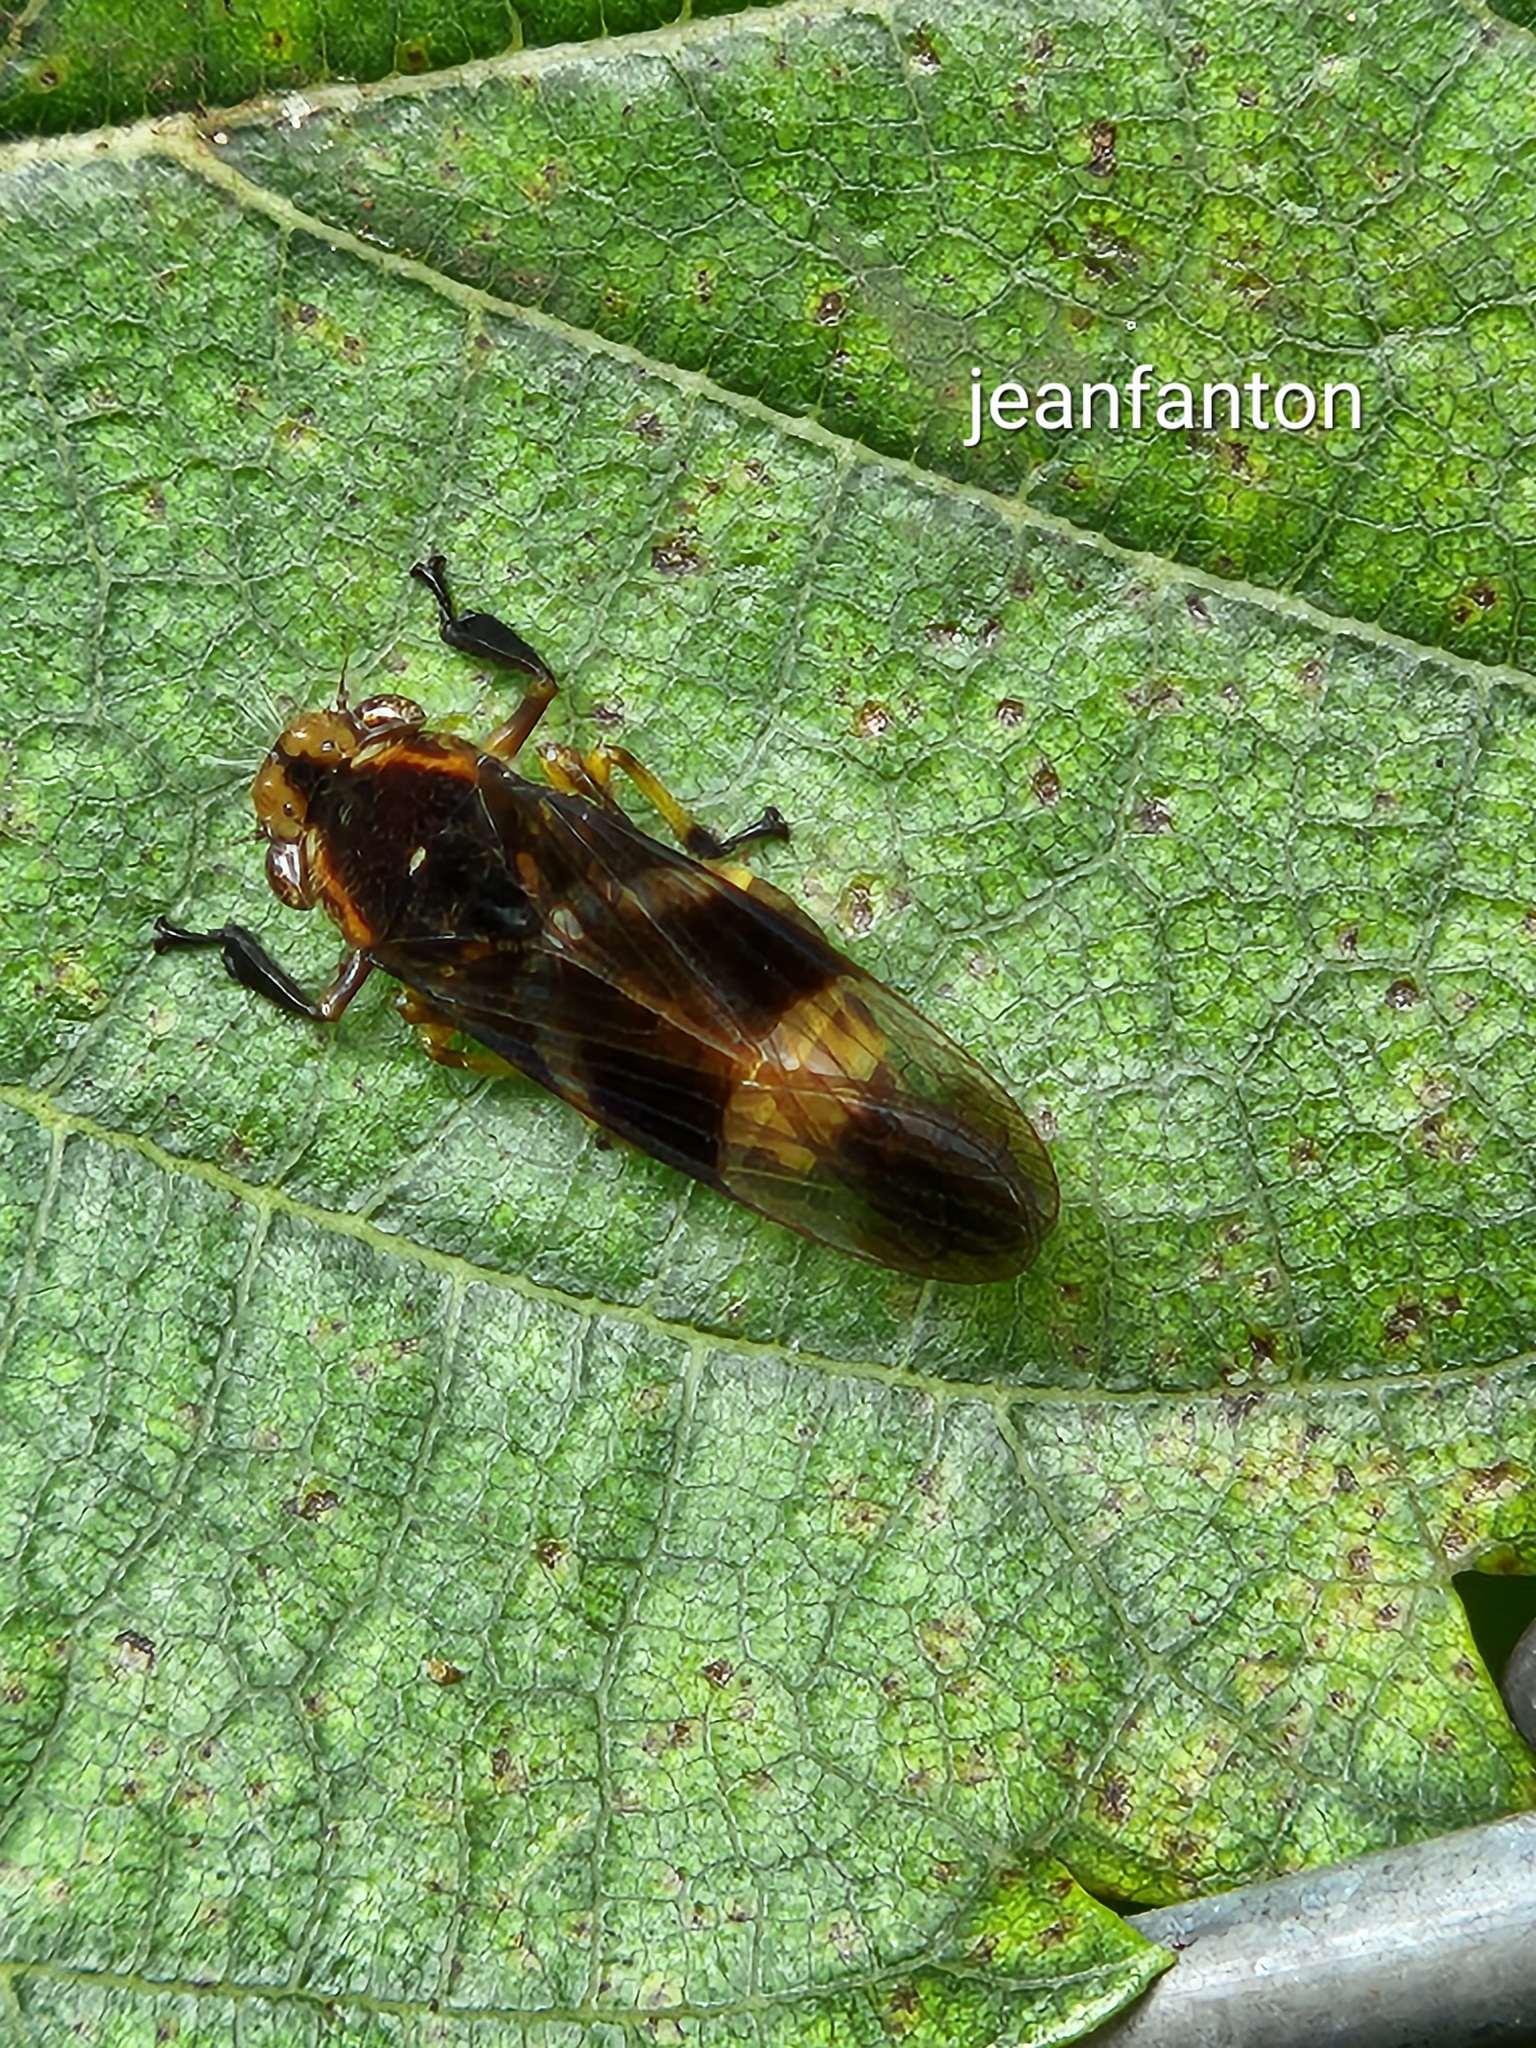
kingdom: Animalia
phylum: Arthropoda
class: Insecta
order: Hemiptera
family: Cicadellidae
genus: Teletusa
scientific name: Teletusa limpida
